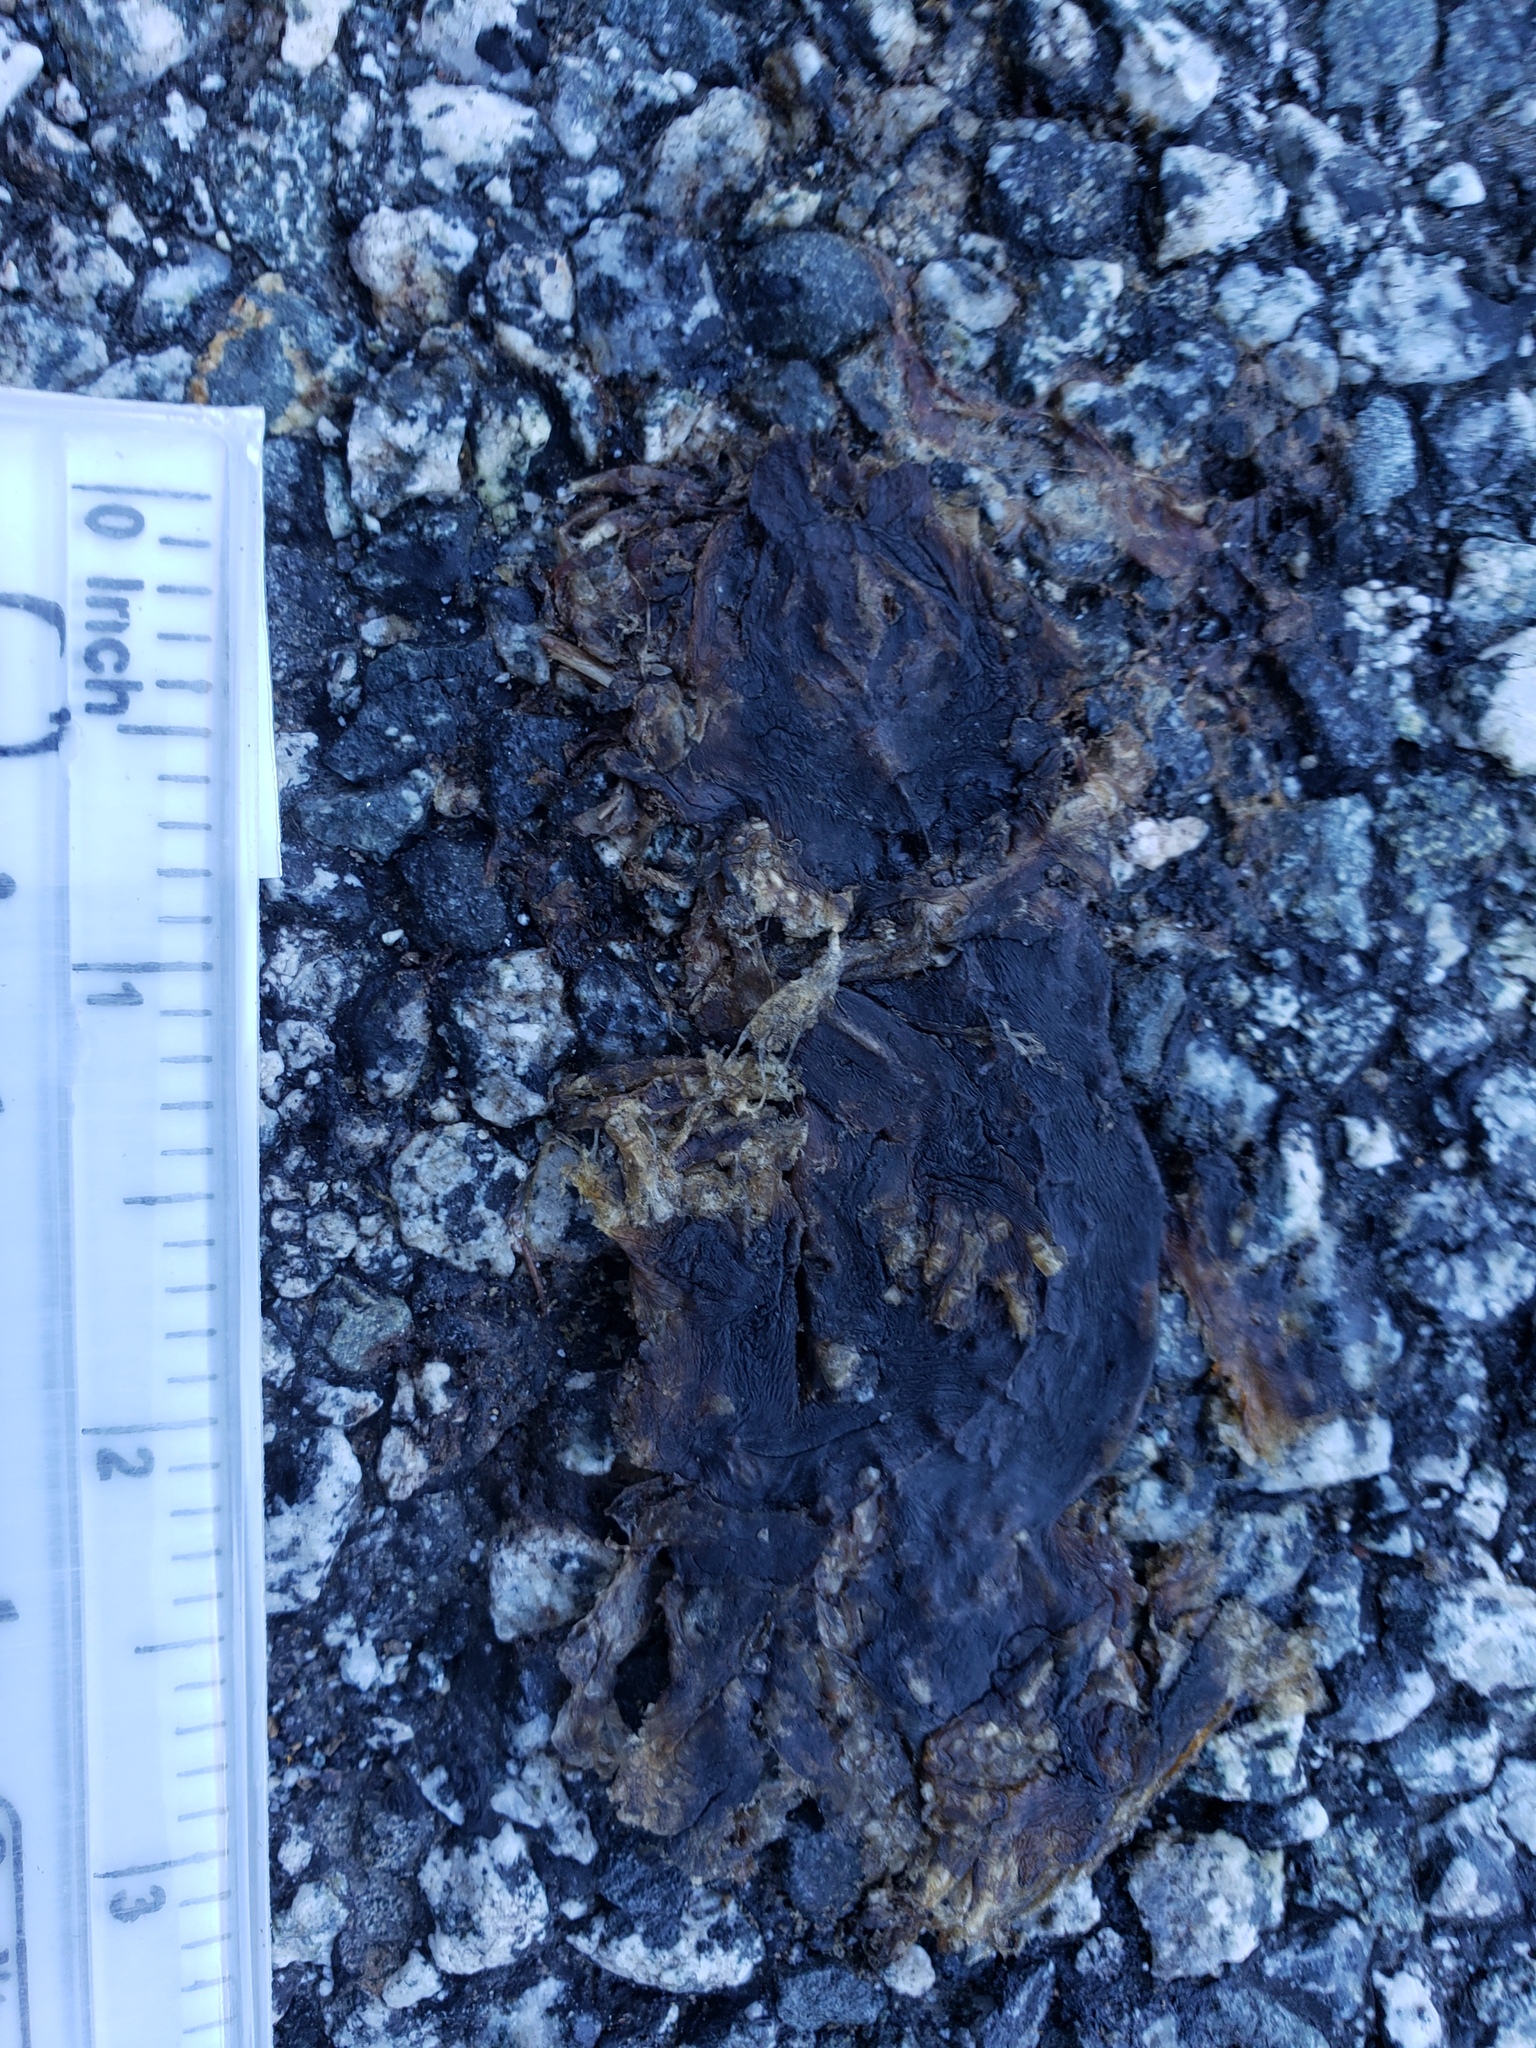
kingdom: Animalia
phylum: Chordata
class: Amphibia
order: Caudata
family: Salamandridae
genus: Taricha
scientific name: Taricha
